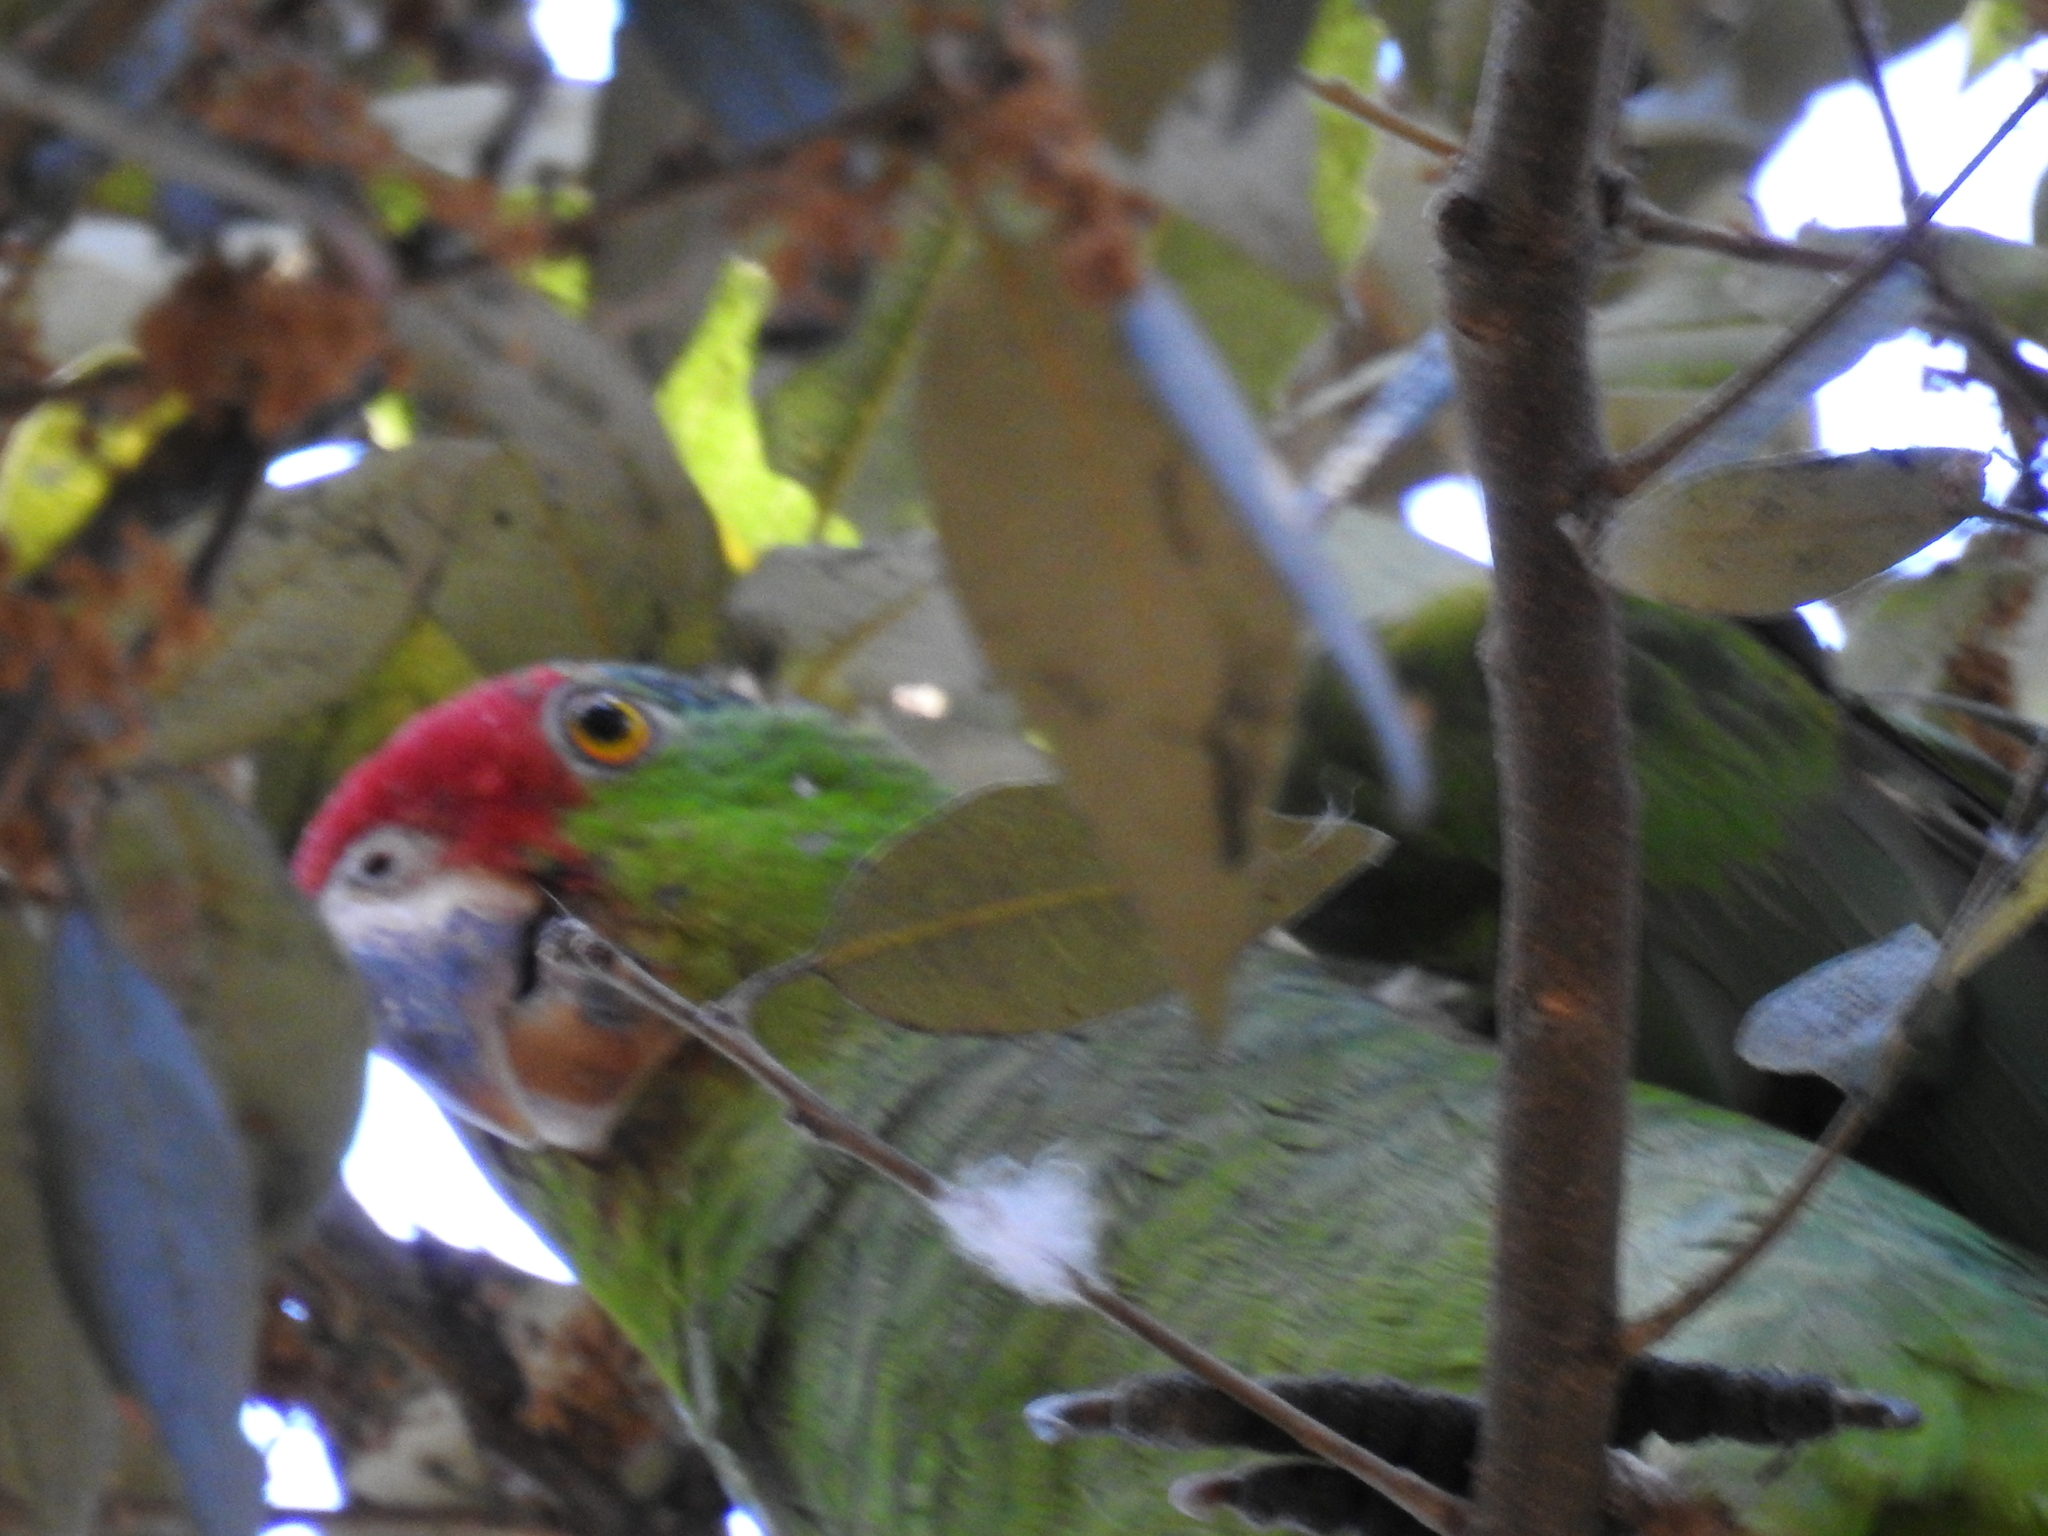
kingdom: Animalia
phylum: Chordata
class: Aves
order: Psittaciformes
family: Psittacidae
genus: Amazona
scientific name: Amazona viridigenalis
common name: Red-crowned amazon
